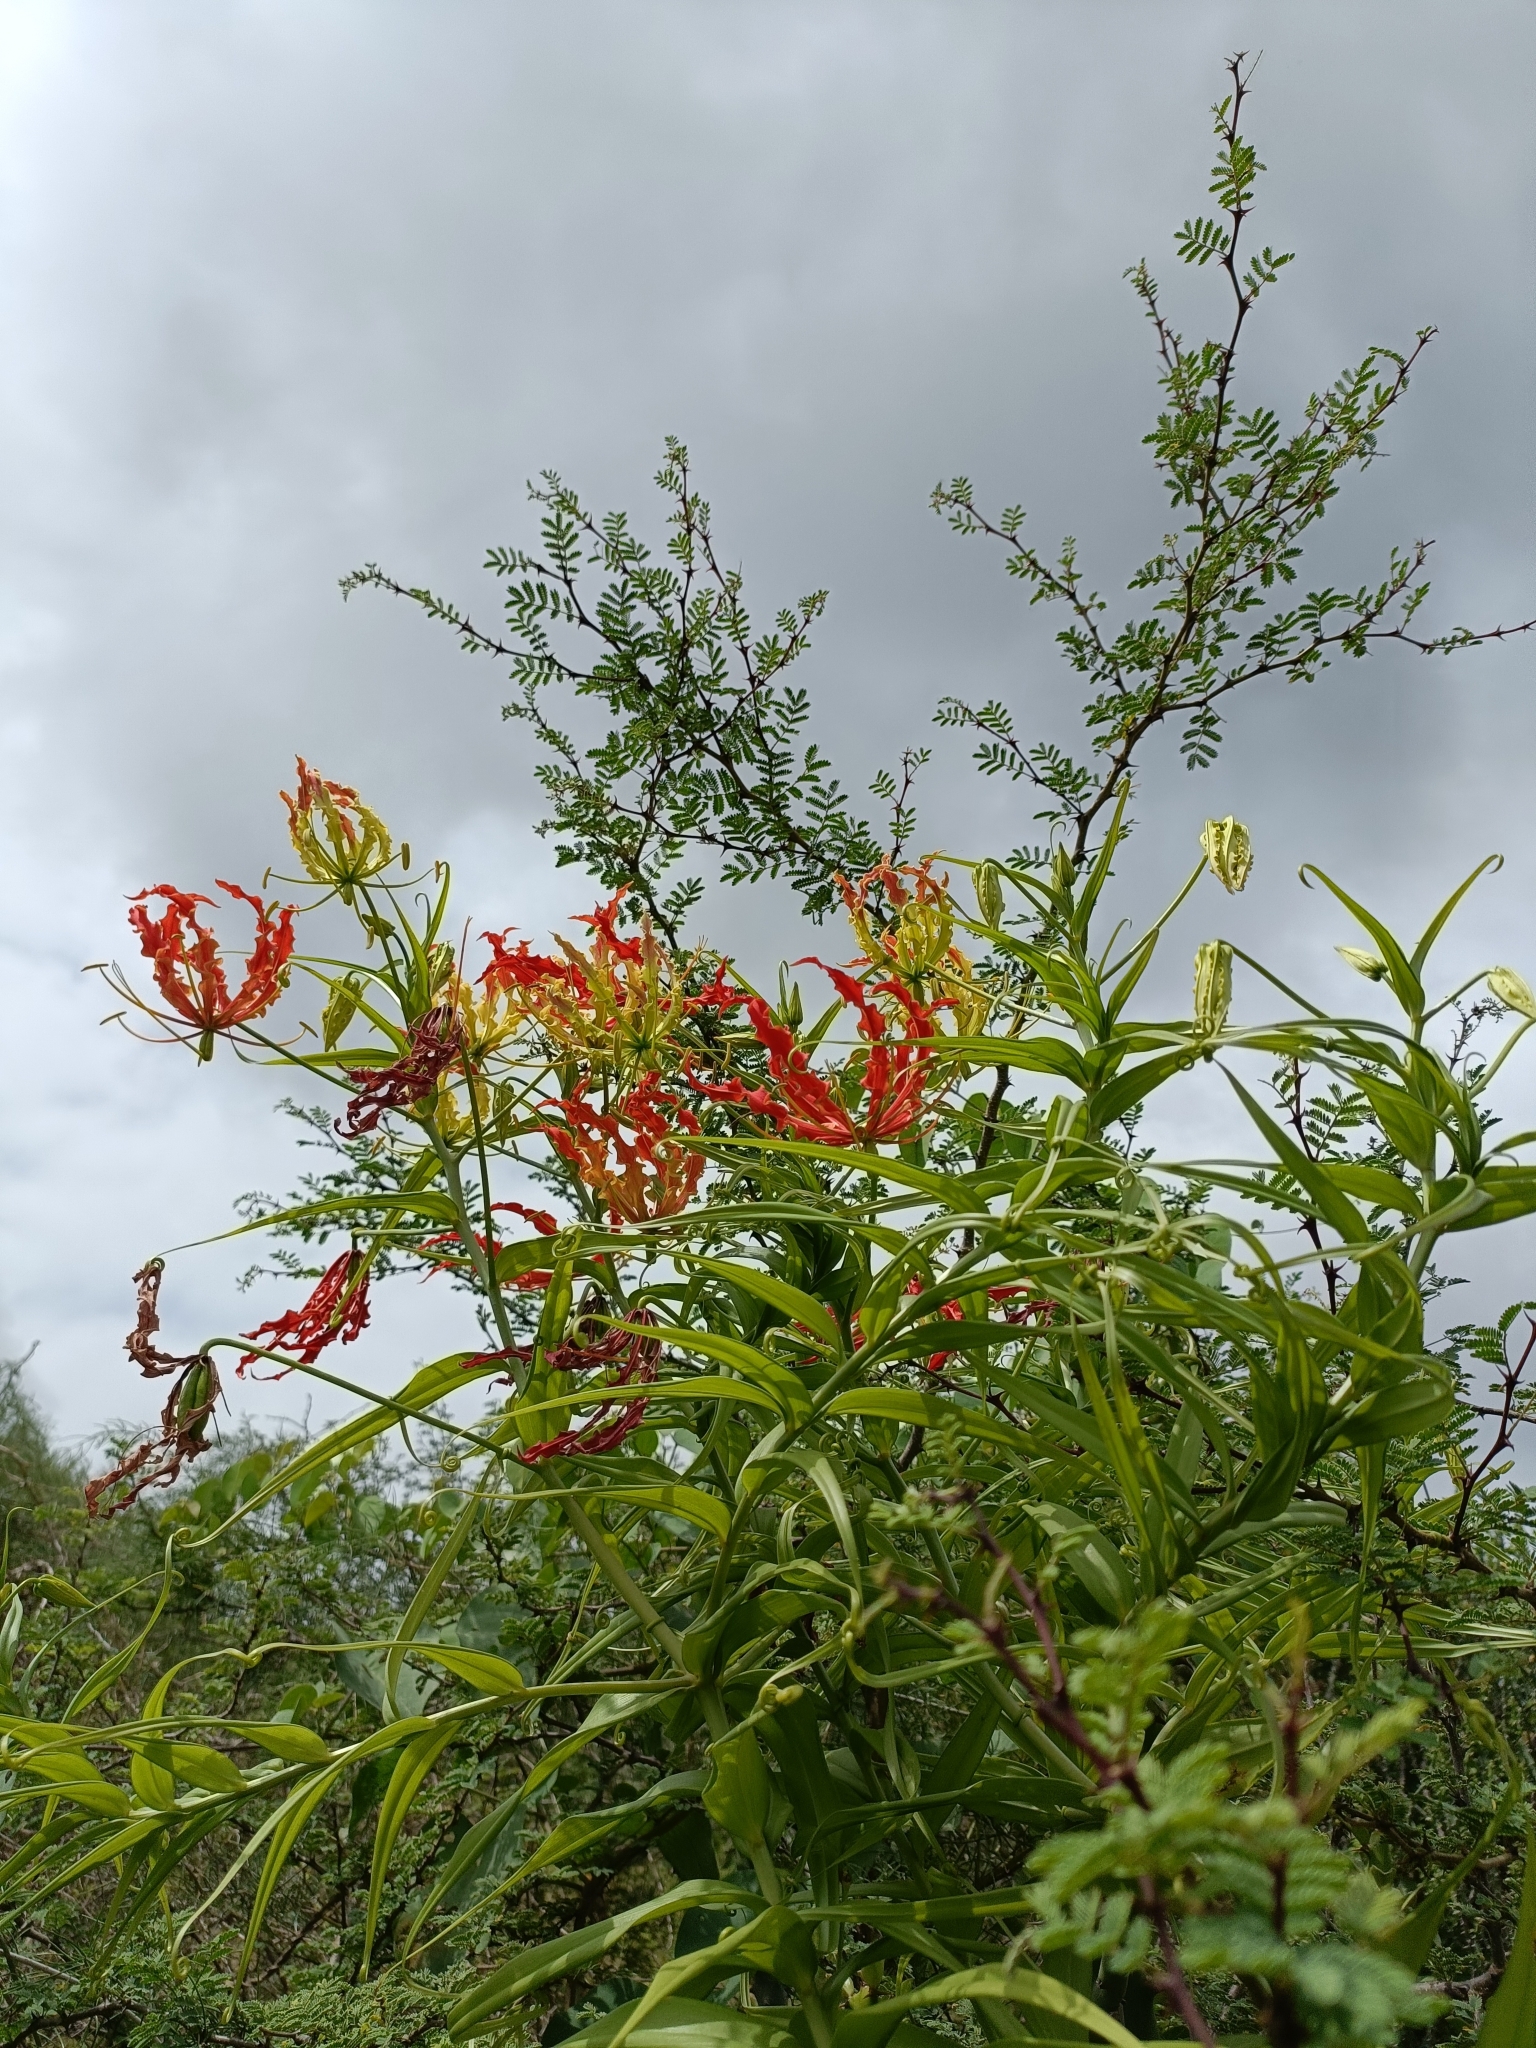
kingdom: Plantae
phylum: Tracheophyta
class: Liliopsida
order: Liliales
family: Colchicaceae
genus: Gloriosa
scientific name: Gloriosa superba
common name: Flame lily
